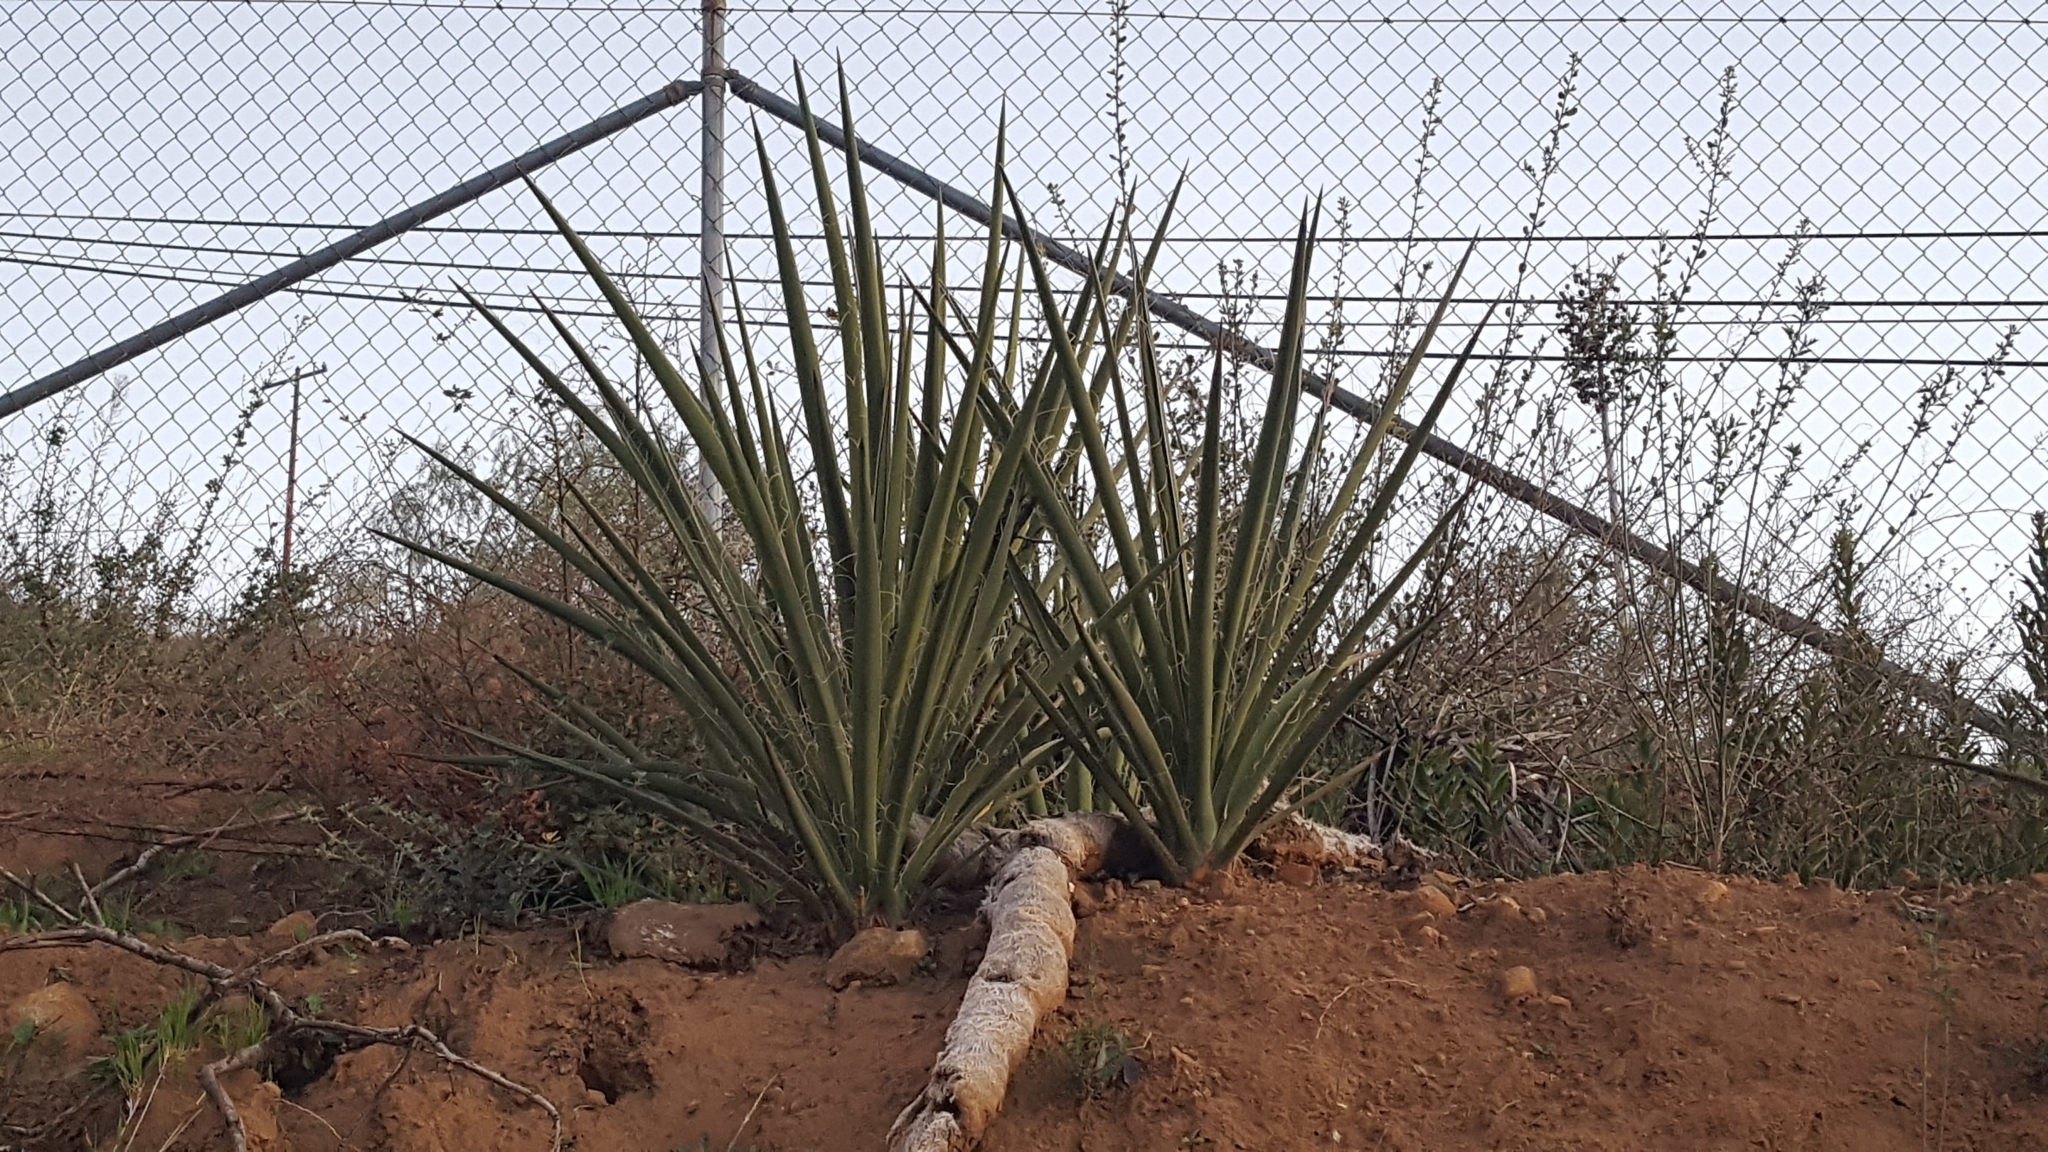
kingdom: Plantae
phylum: Tracheophyta
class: Liliopsida
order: Asparagales
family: Asparagaceae
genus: Yucca
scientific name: Yucca schidigera
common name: Mojave yucca
